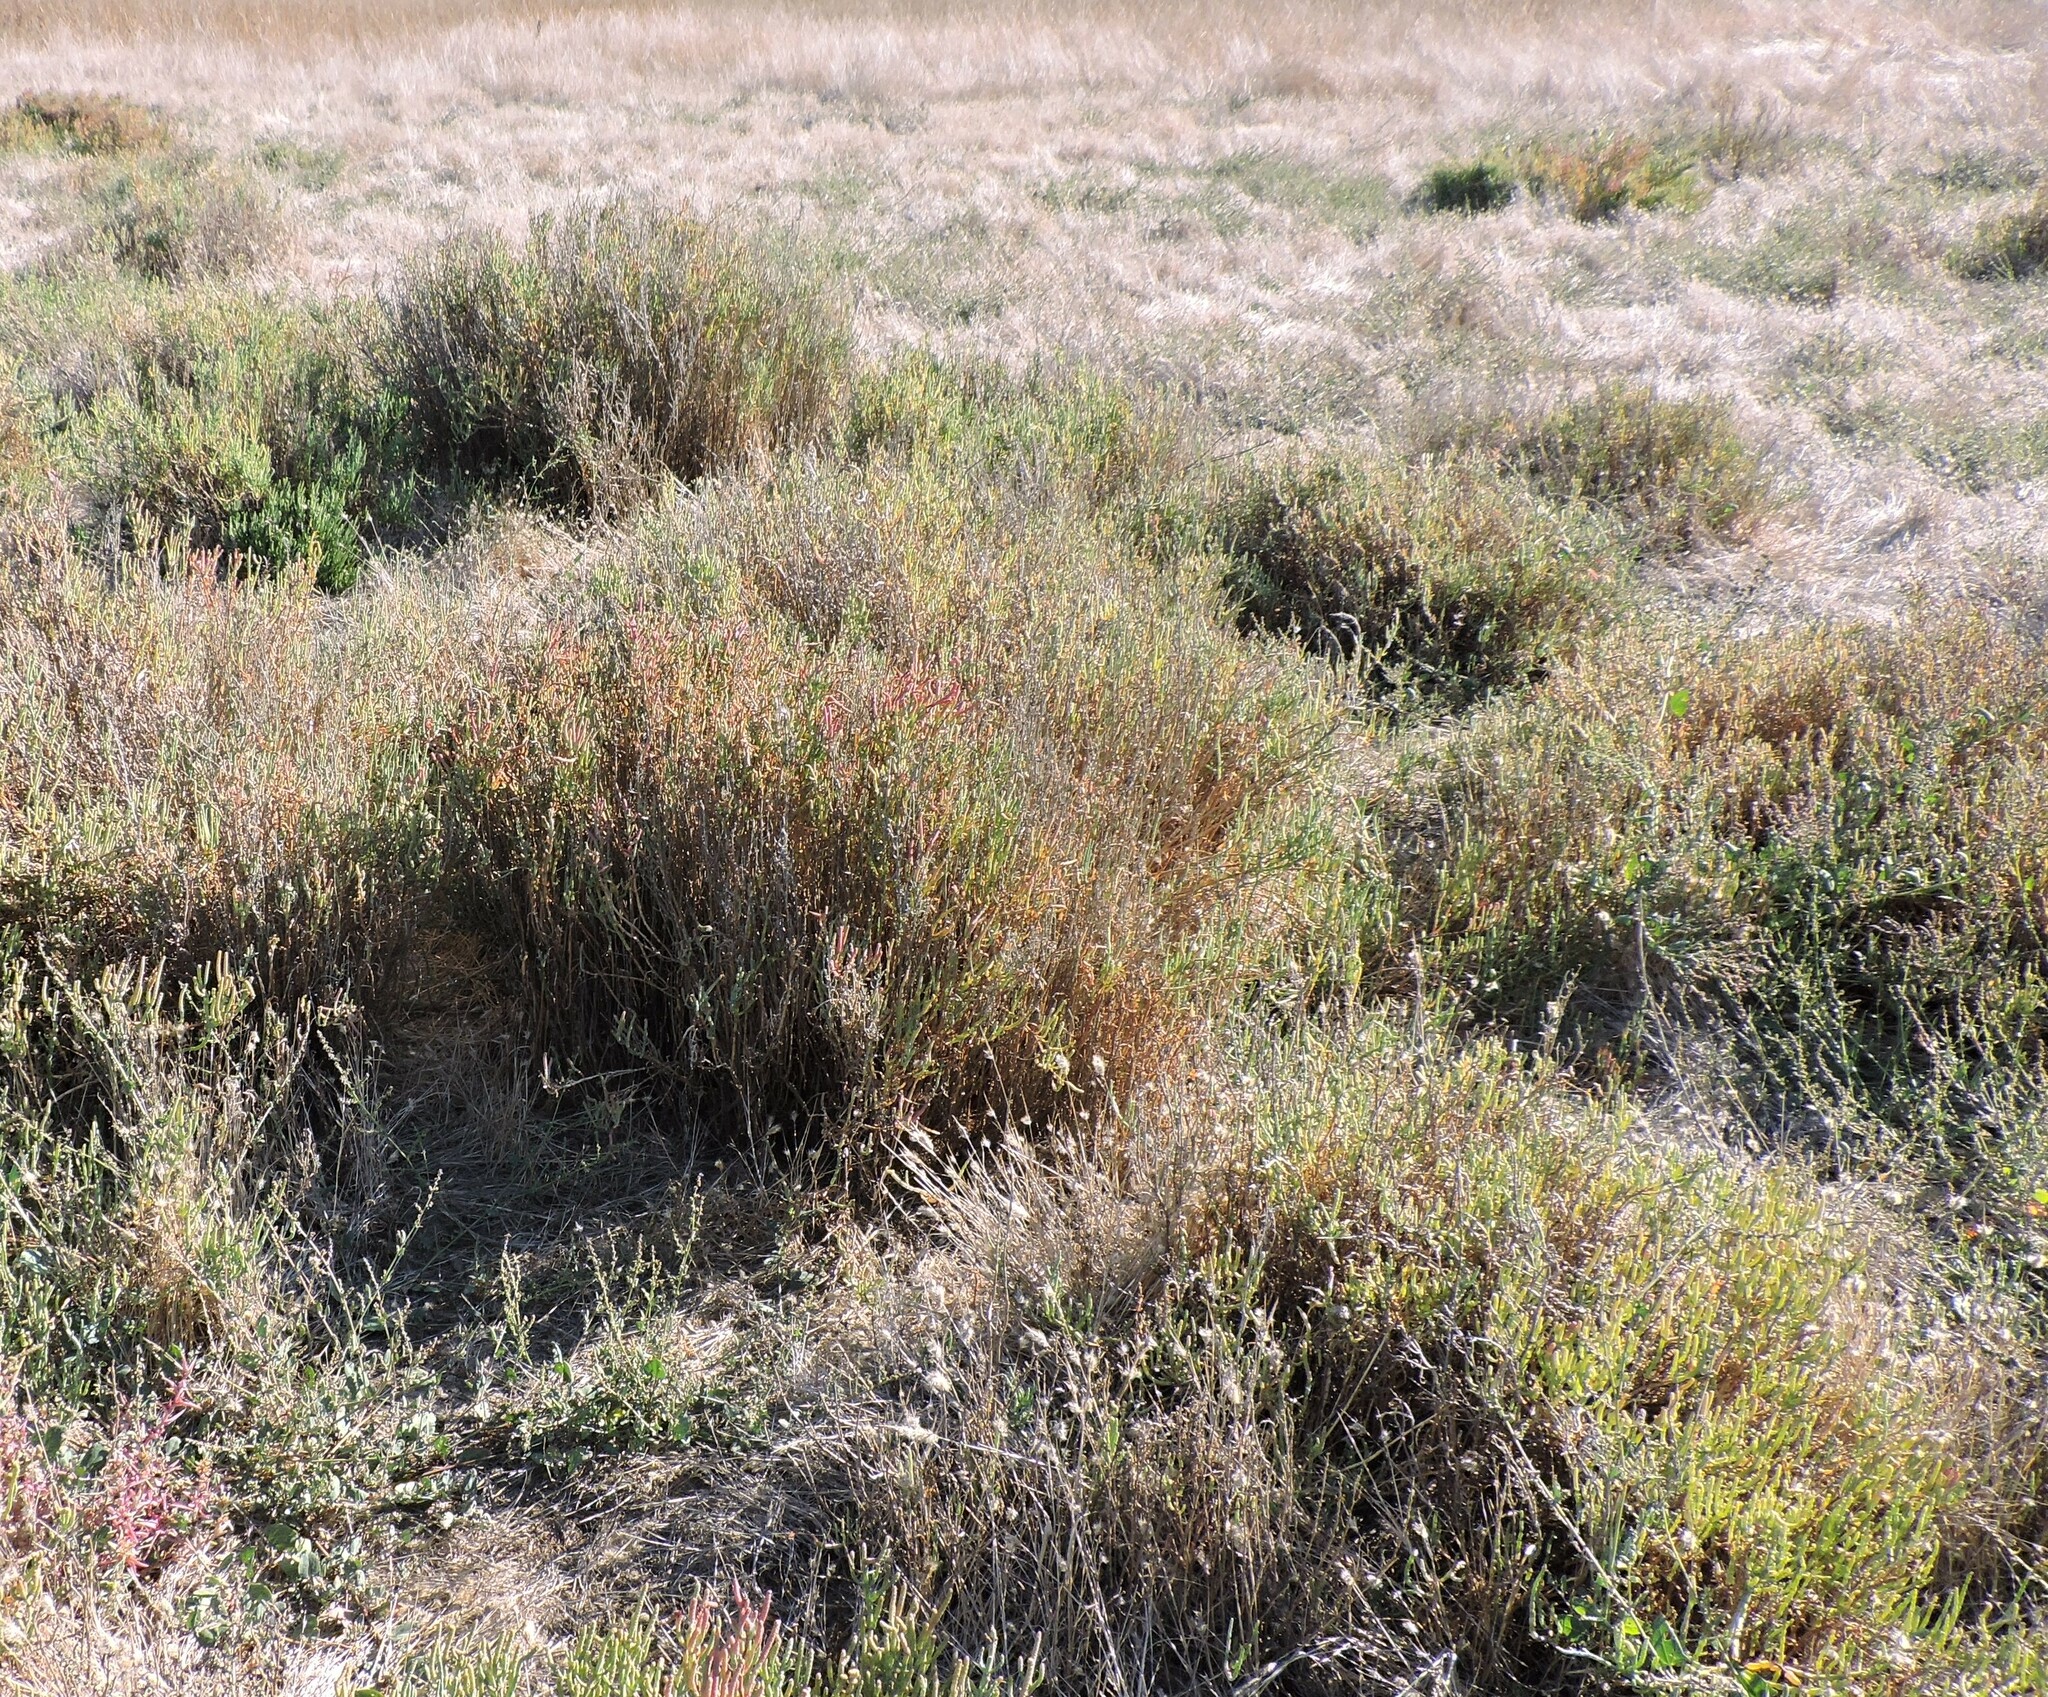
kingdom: Plantae
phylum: Tracheophyta
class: Magnoliopsida
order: Caryophyllales
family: Amaranthaceae
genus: Salicornia
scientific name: Salicornia pacifica
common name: Pacific glasswort
